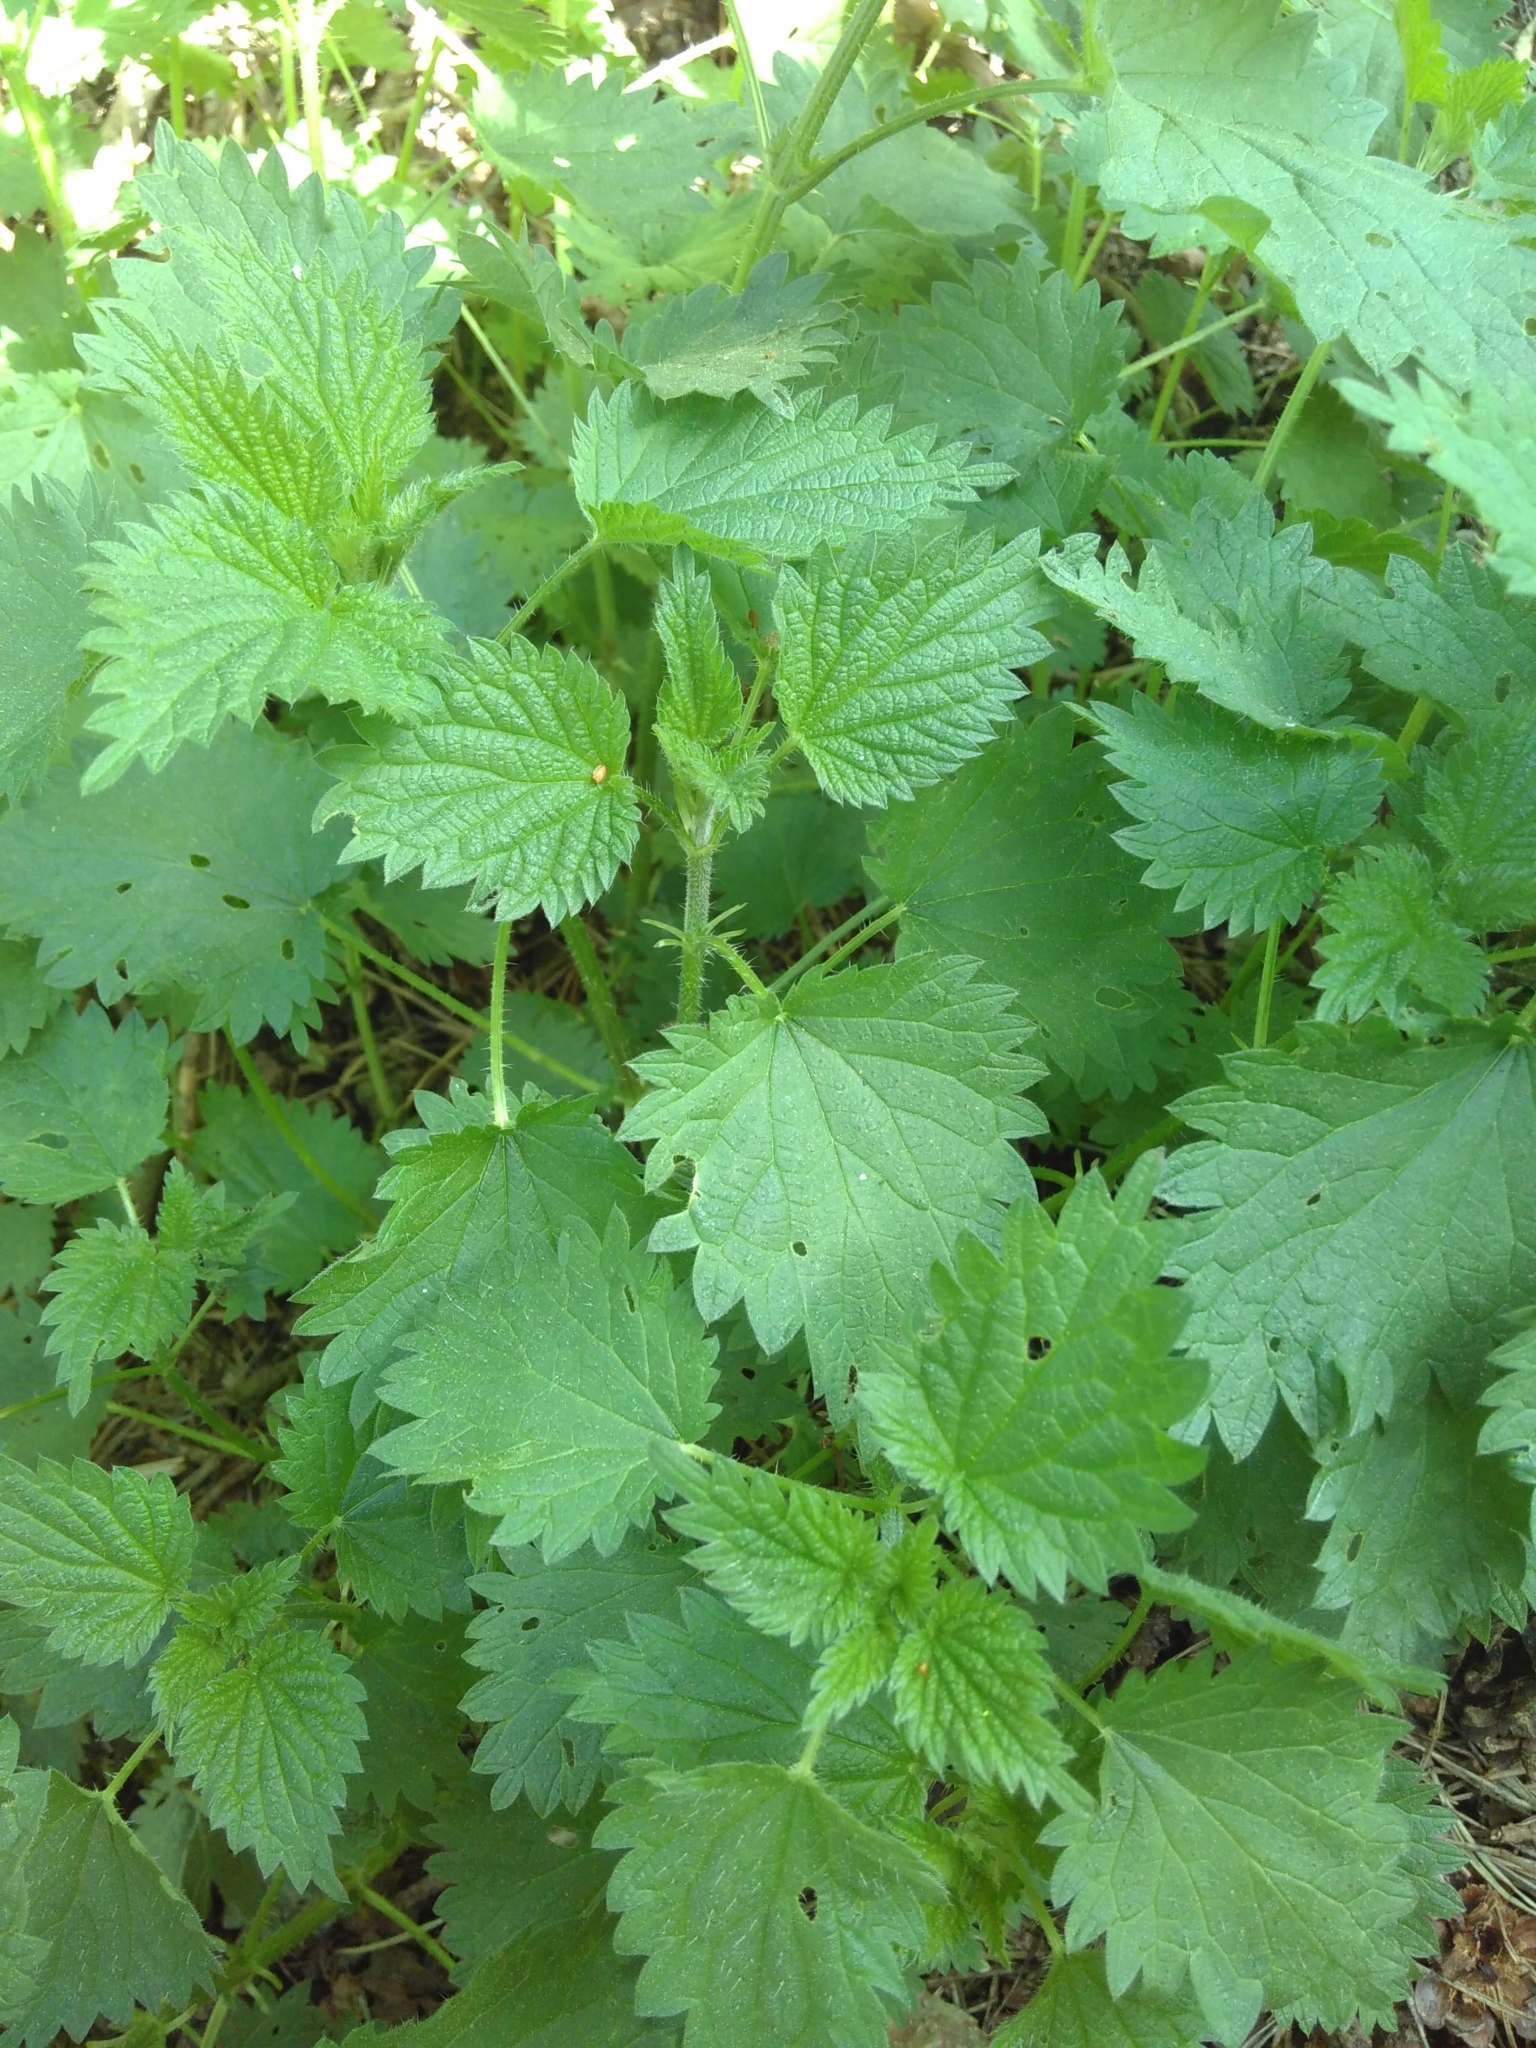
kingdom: Plantae
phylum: Tracheophyta
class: Magnoliopsida
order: Rosales
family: Urticaceae
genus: Urtica
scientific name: Urtica dioica
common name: Common nettle
